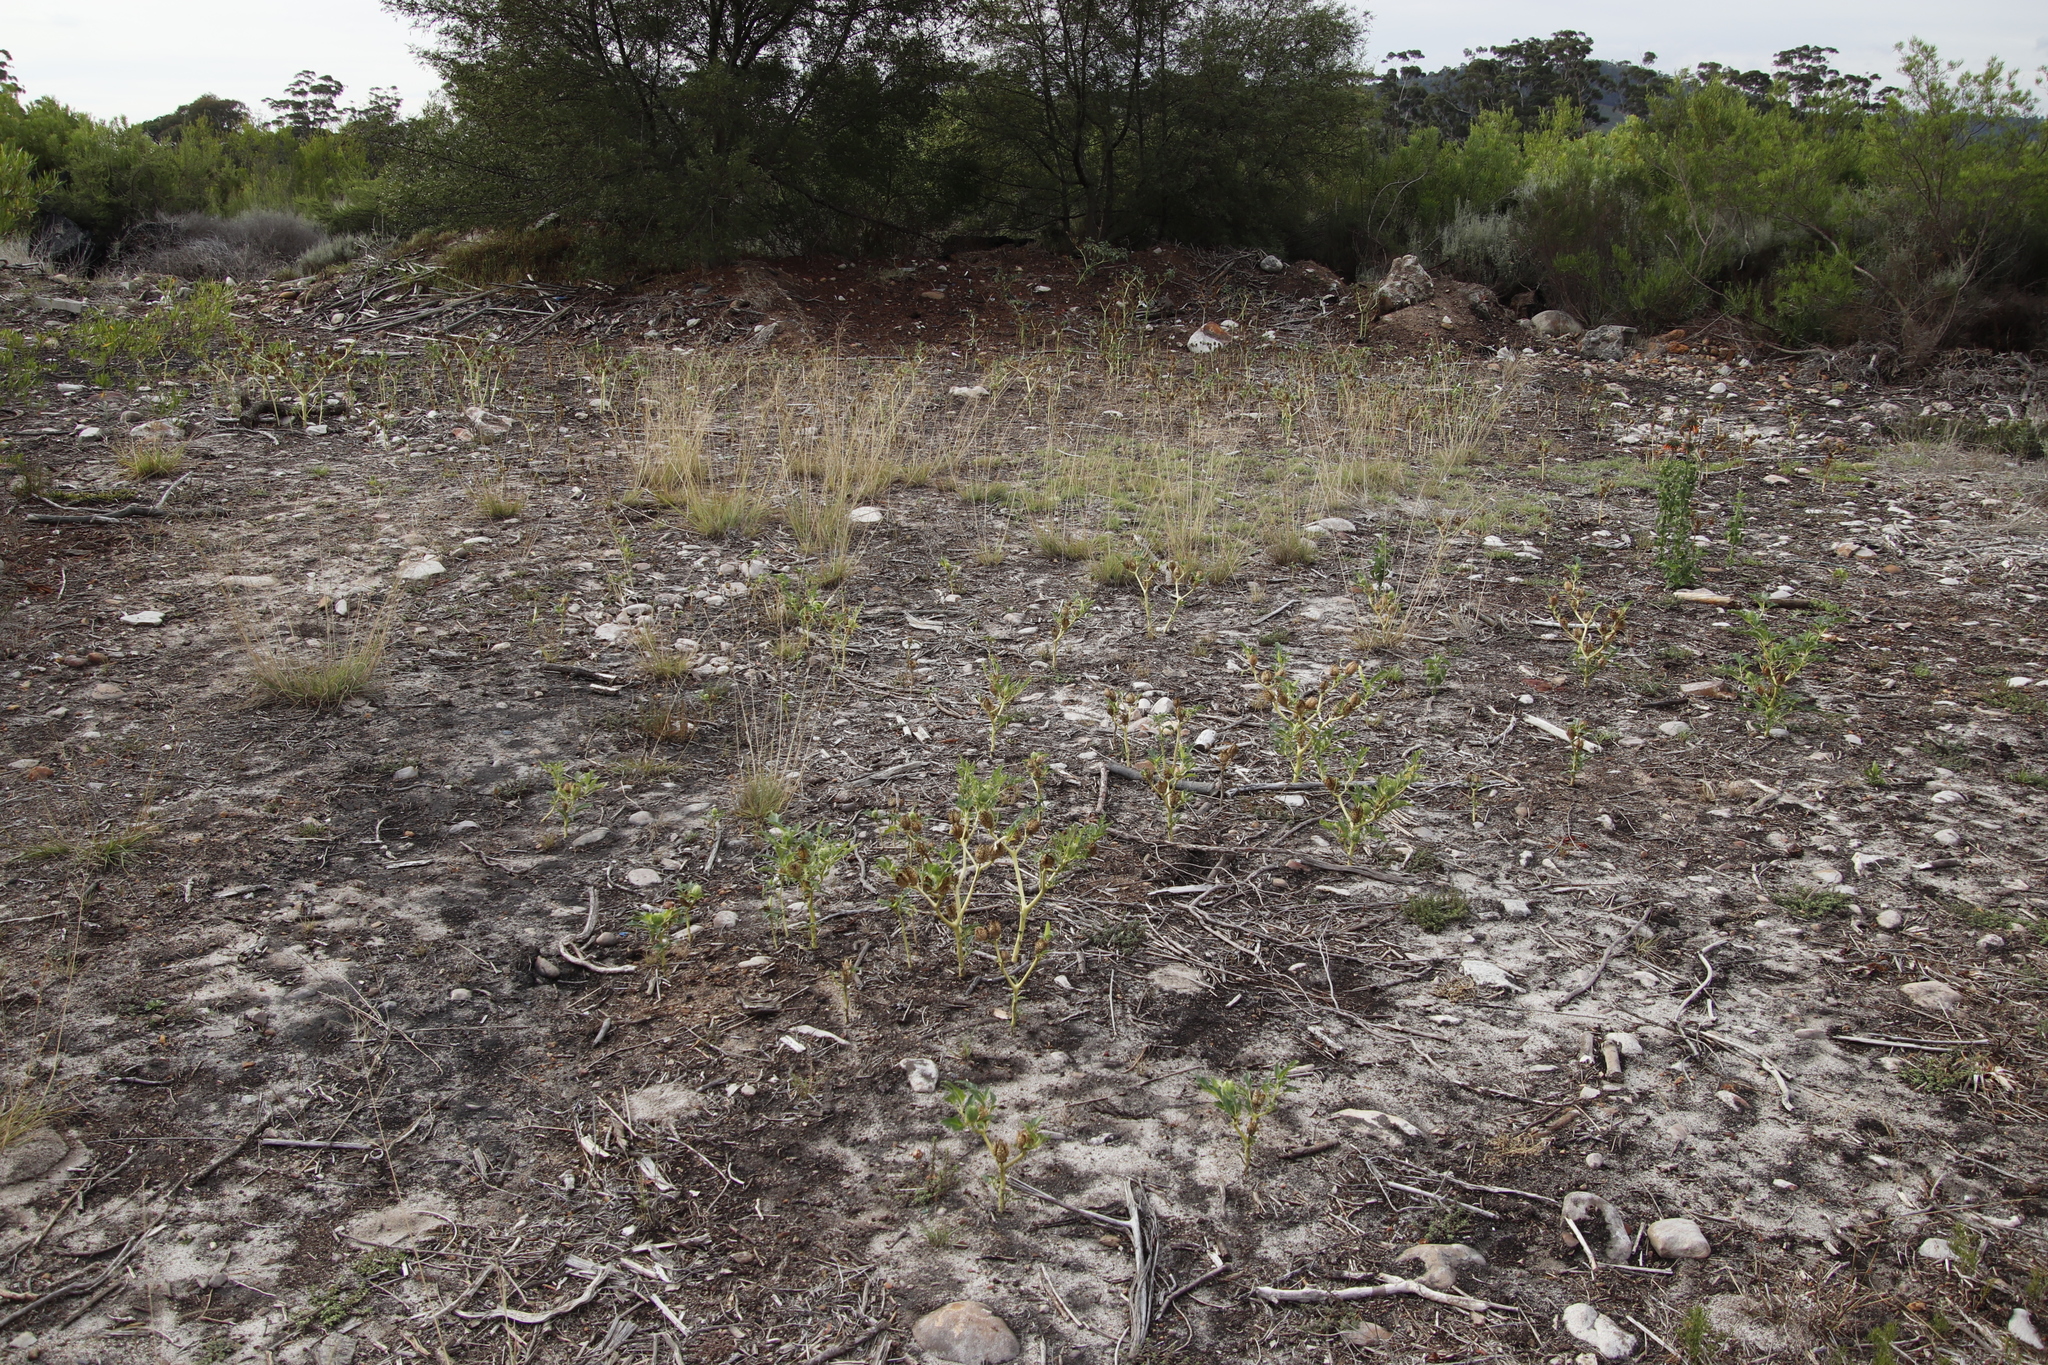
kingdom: Plantae
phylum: Tracheophyta
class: Magnoliopsida
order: Solanales
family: Solanaceae
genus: Datura
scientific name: Datura stramonium
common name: Thorn-apple
